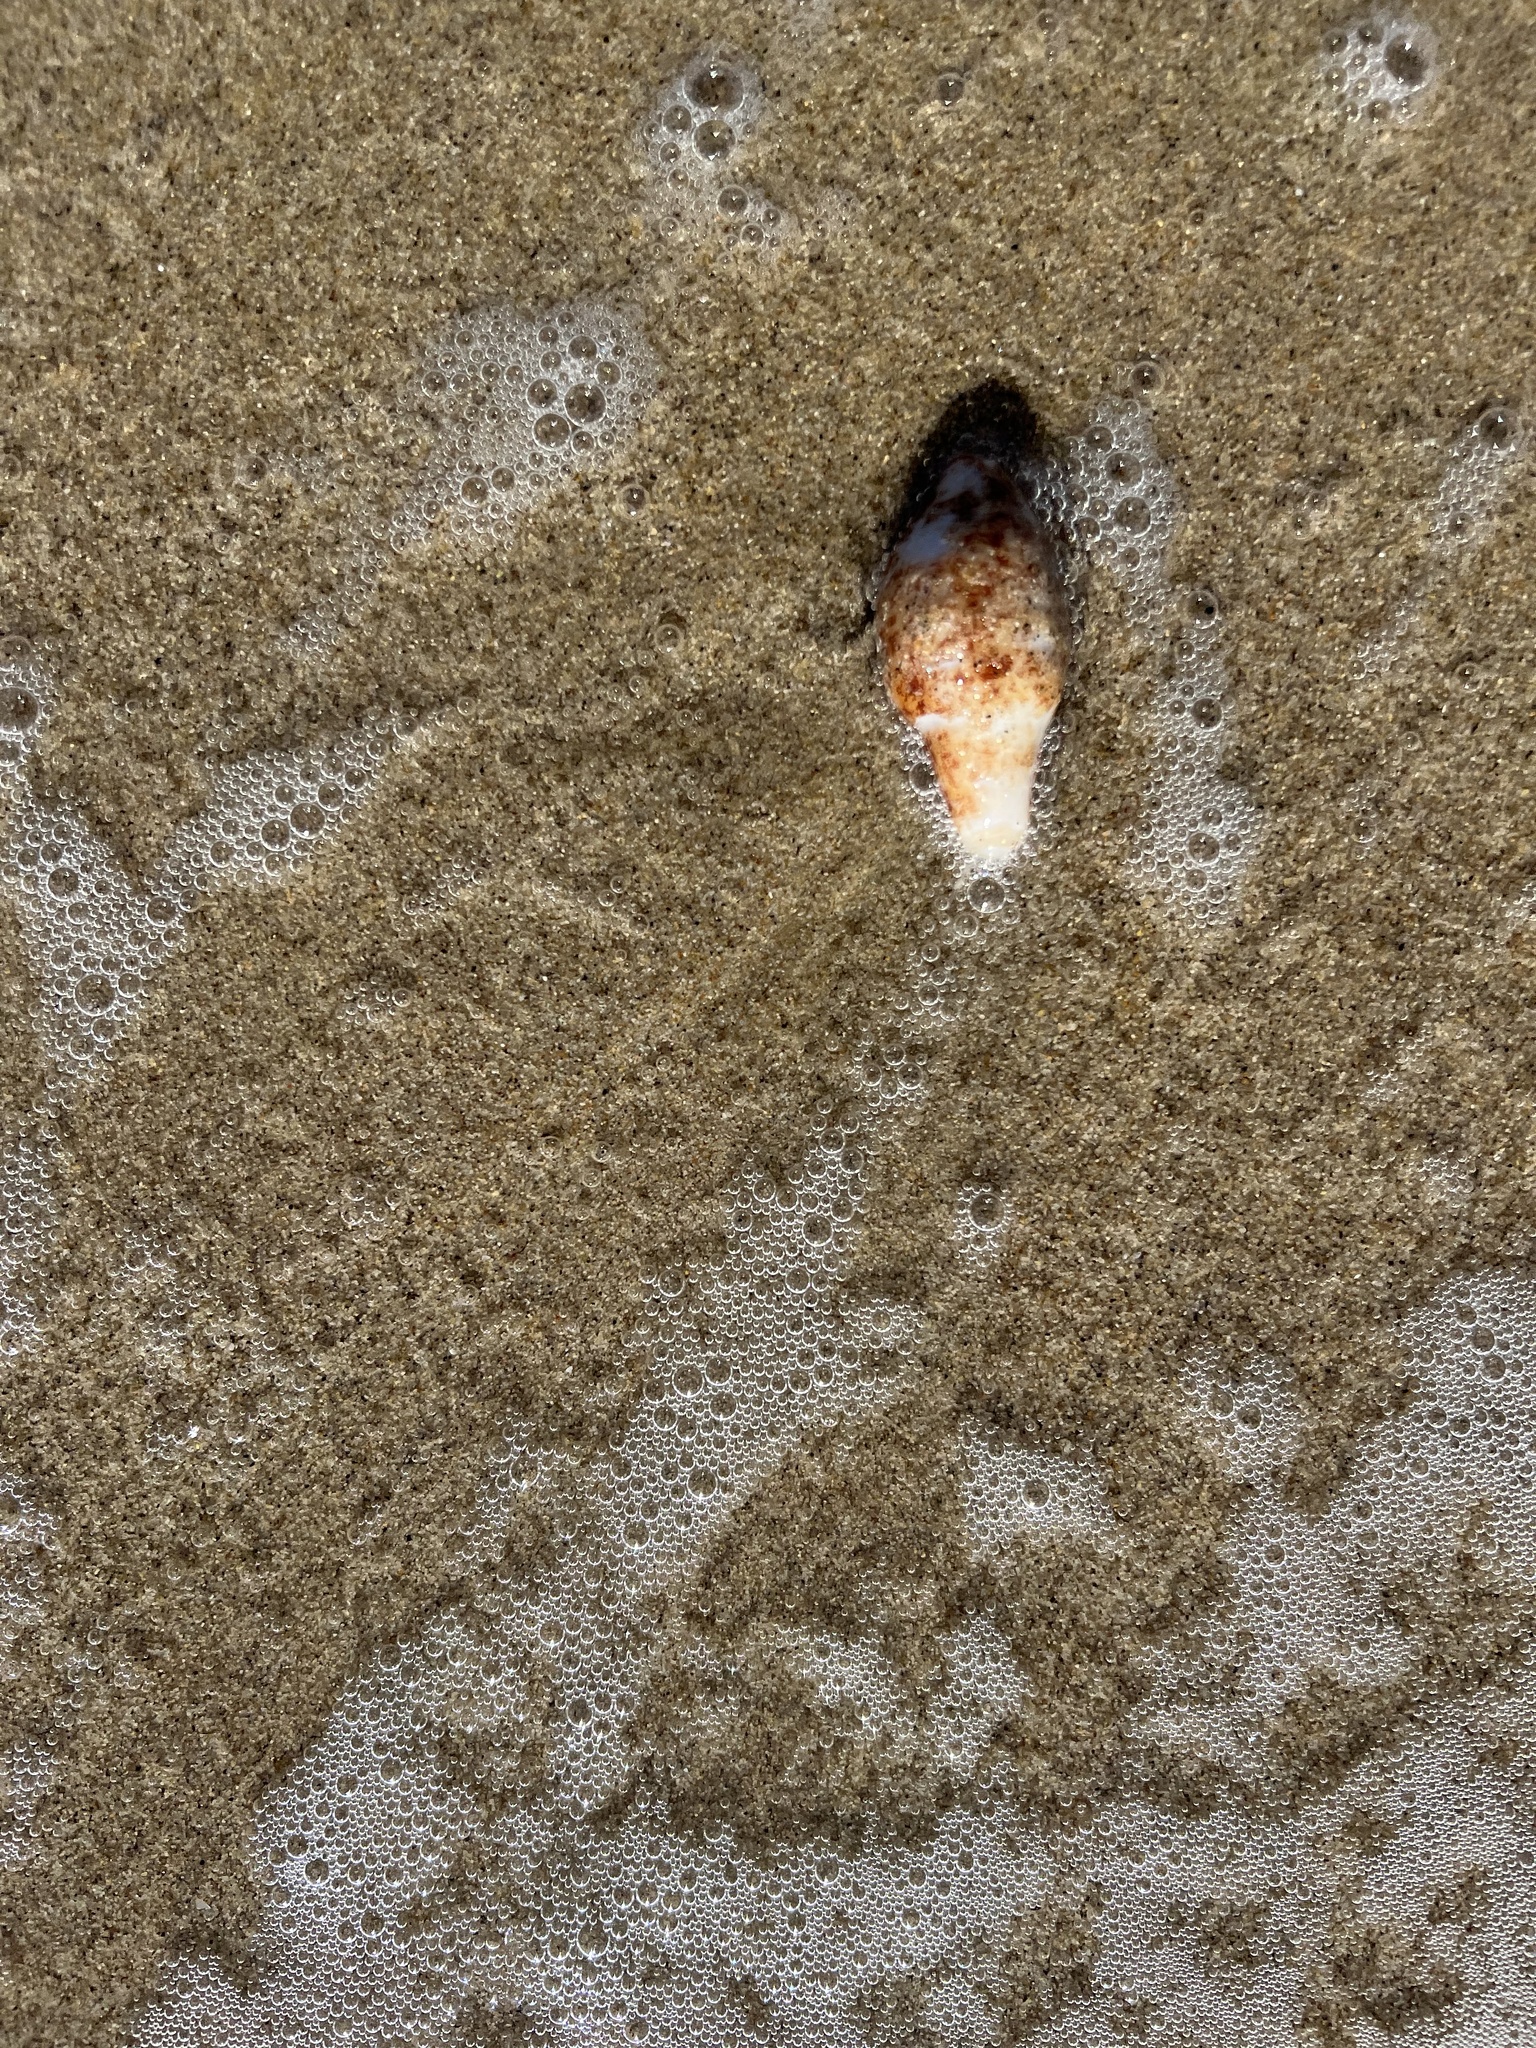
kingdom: Animalia
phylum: Echinodermata
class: Holothuroidea
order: Molpadida
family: Caudinidae
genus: Caudina
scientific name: Caudina arenicola
